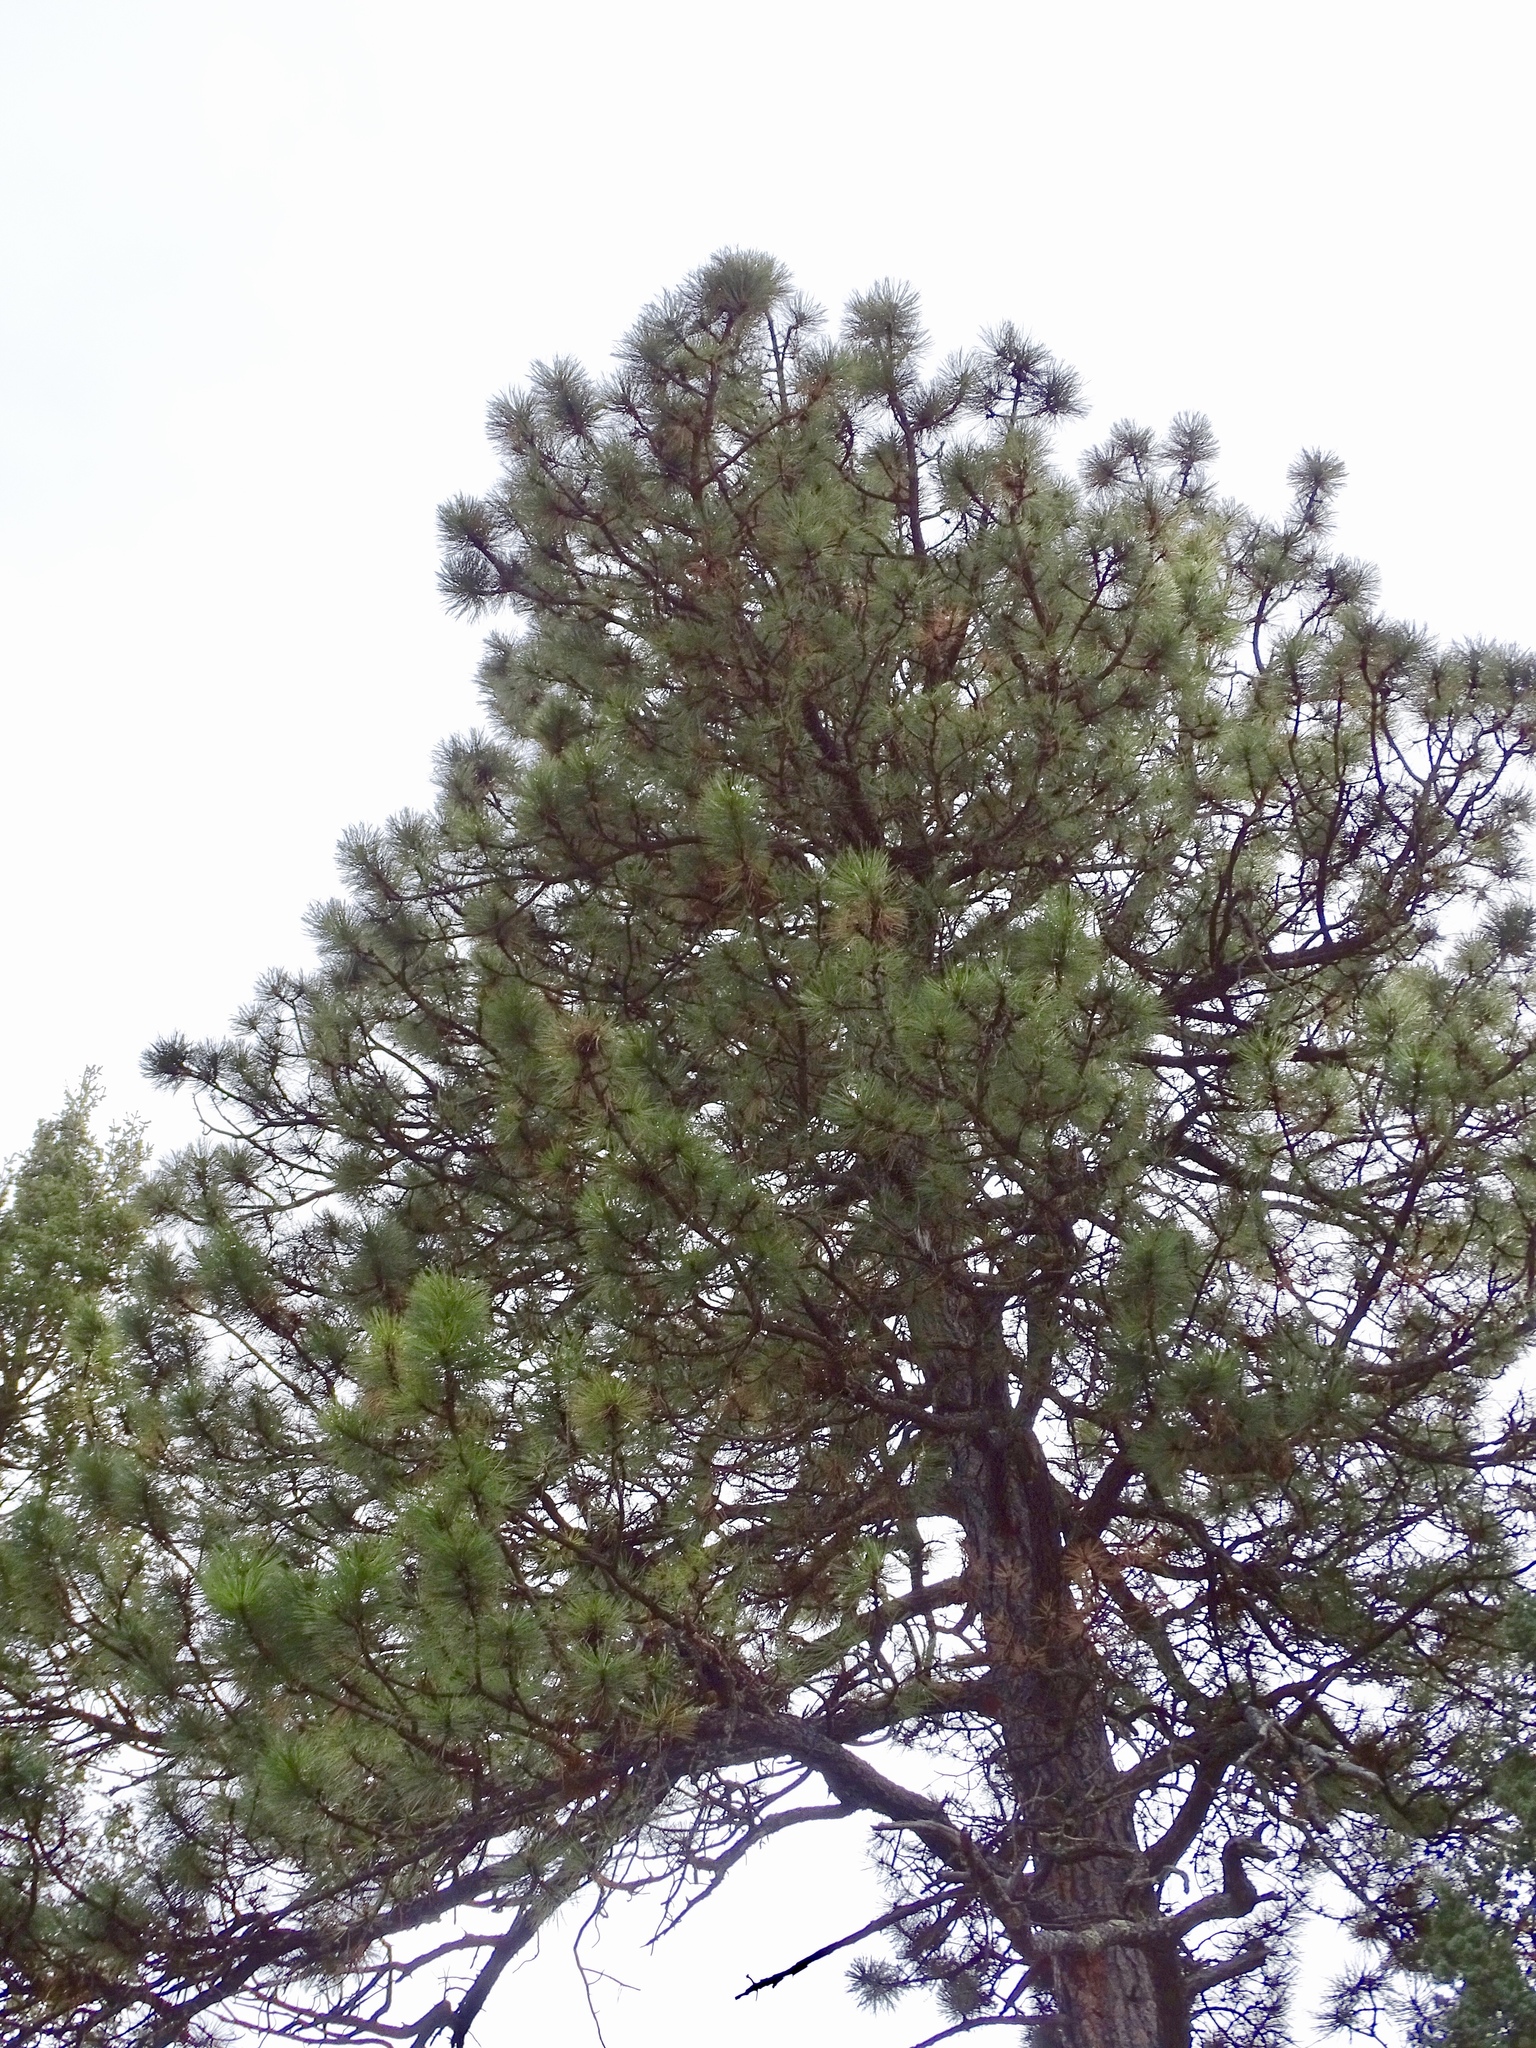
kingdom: Plantae
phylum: Tracheophyta
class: Pinopsida
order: Pinales
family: Pinaceae
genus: Pinus
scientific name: Pinus ponderosa
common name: Western yellow-pine
